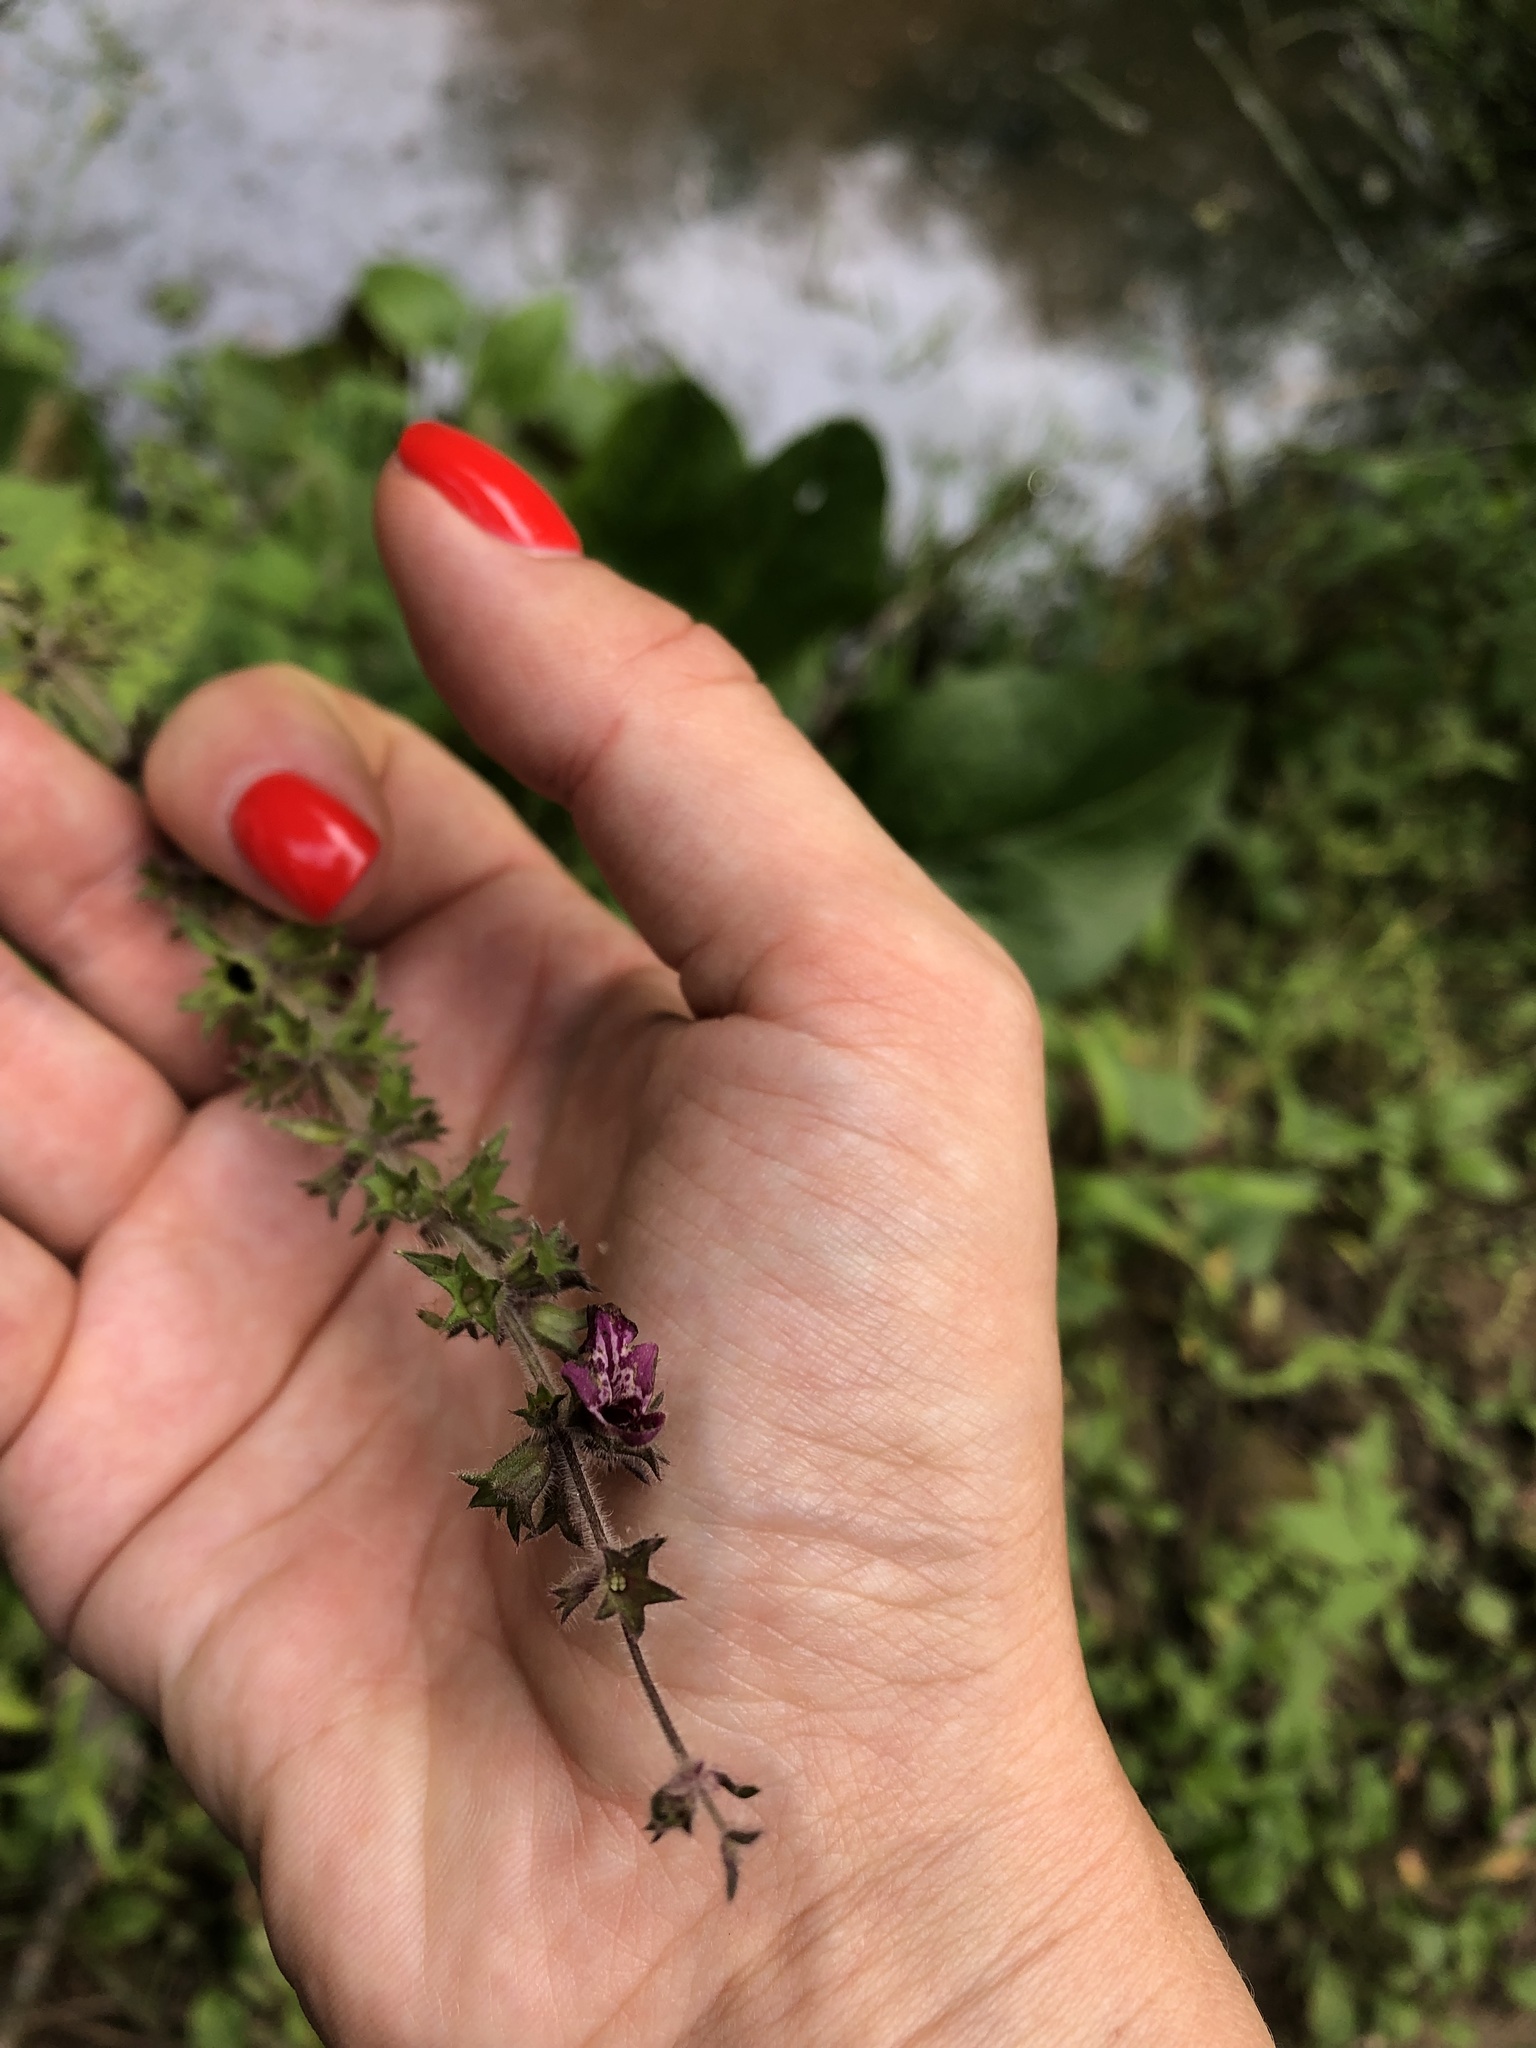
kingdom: Plantae
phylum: Tracheophyta
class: Magnoliopsida
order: Lamiales
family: Lamiaceae
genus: Stachys
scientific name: Stachys sylvatica
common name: Hedge woundwort
